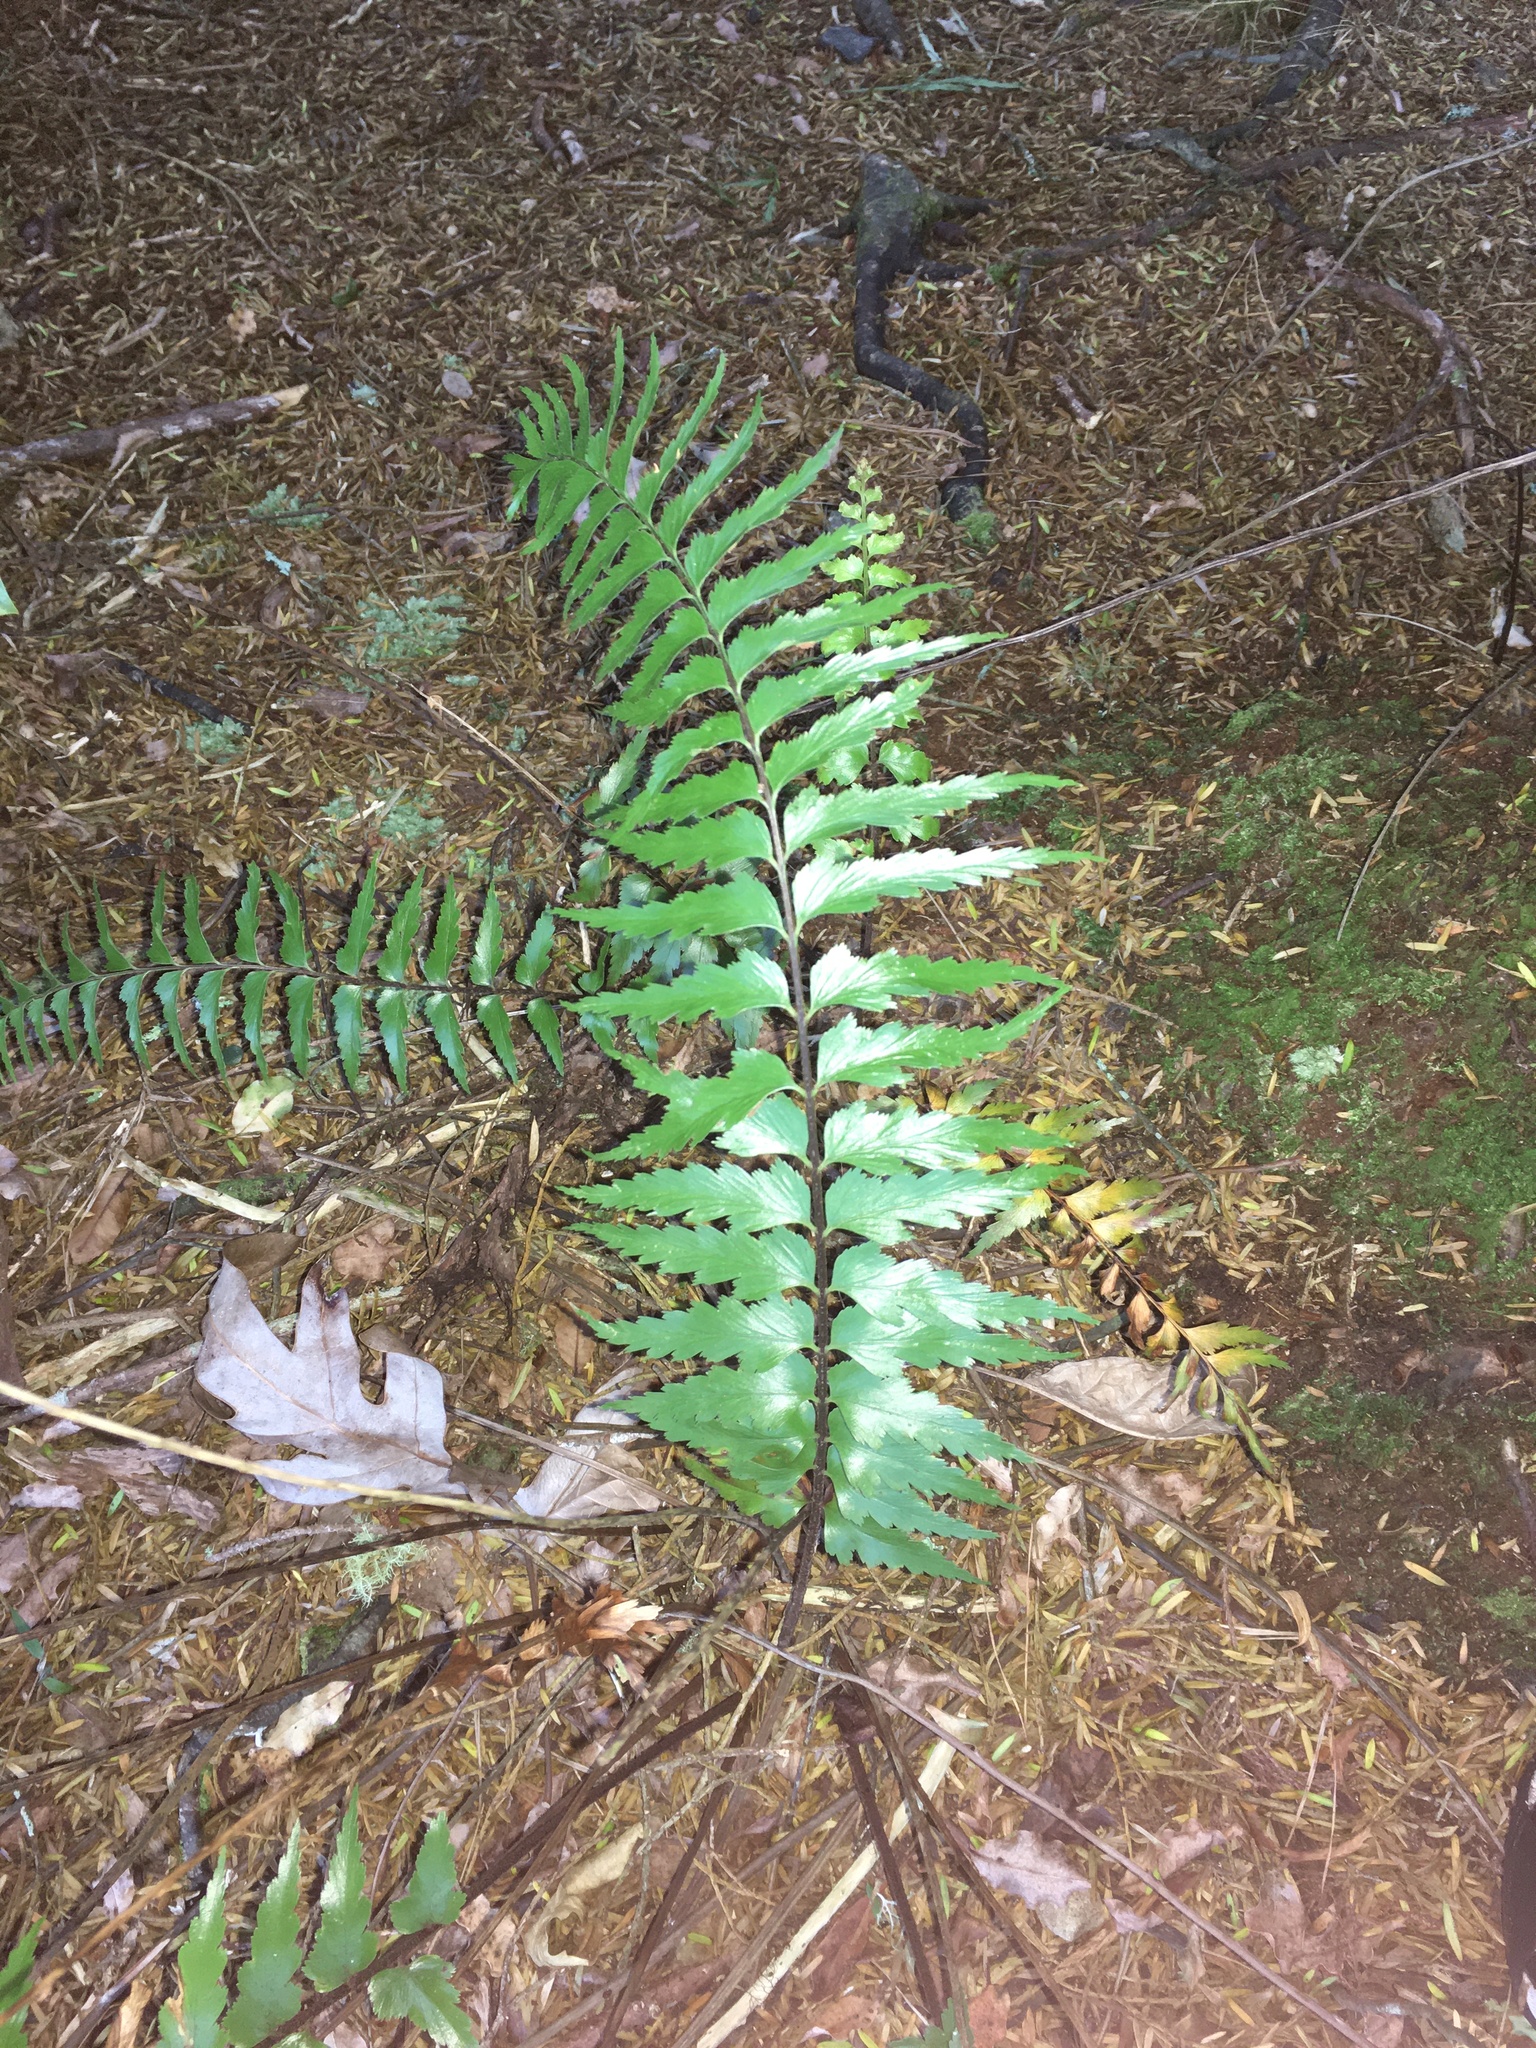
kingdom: Plantae
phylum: Tracheophyta
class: Polypodiopsida
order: Polypodiales
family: Aspleniaceae
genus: Asplenium
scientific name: Asplenium polyodon
